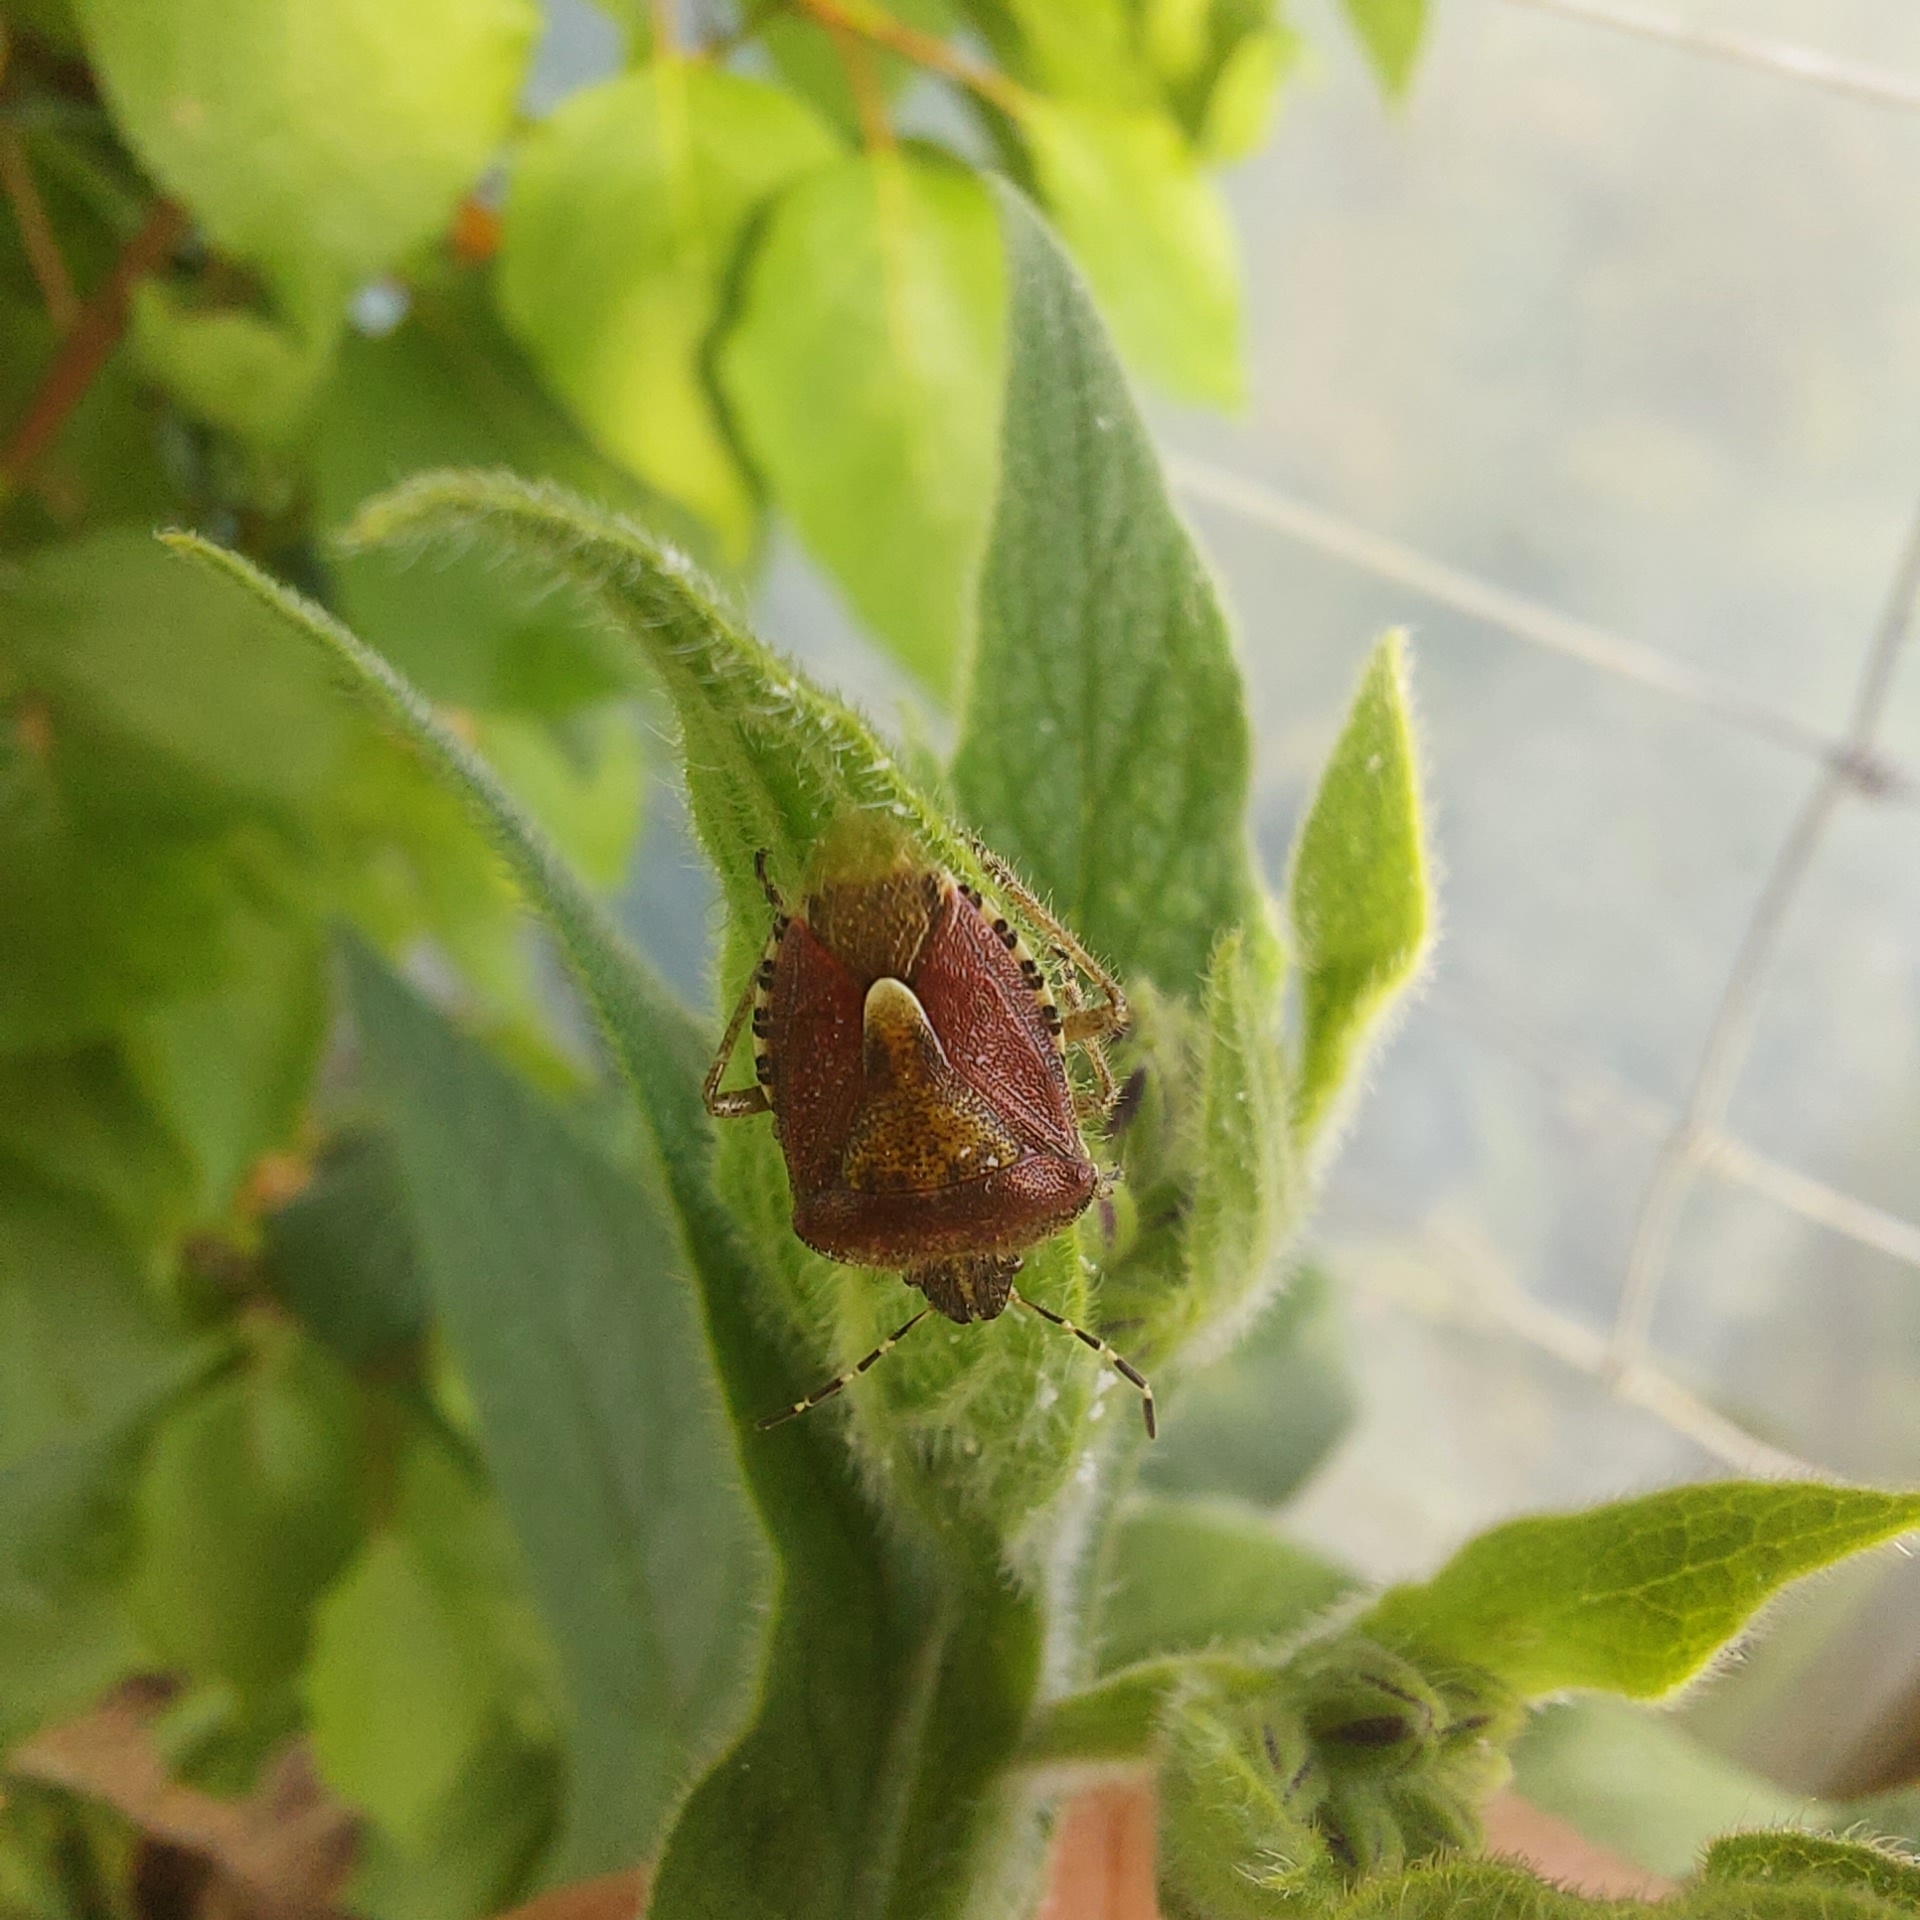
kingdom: Animalia
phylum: Arthropoda
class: Insecta
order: Hemiptera
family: Pentatomidae
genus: Dolycoris
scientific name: Dolycoris baccarum
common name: Sloe bug
